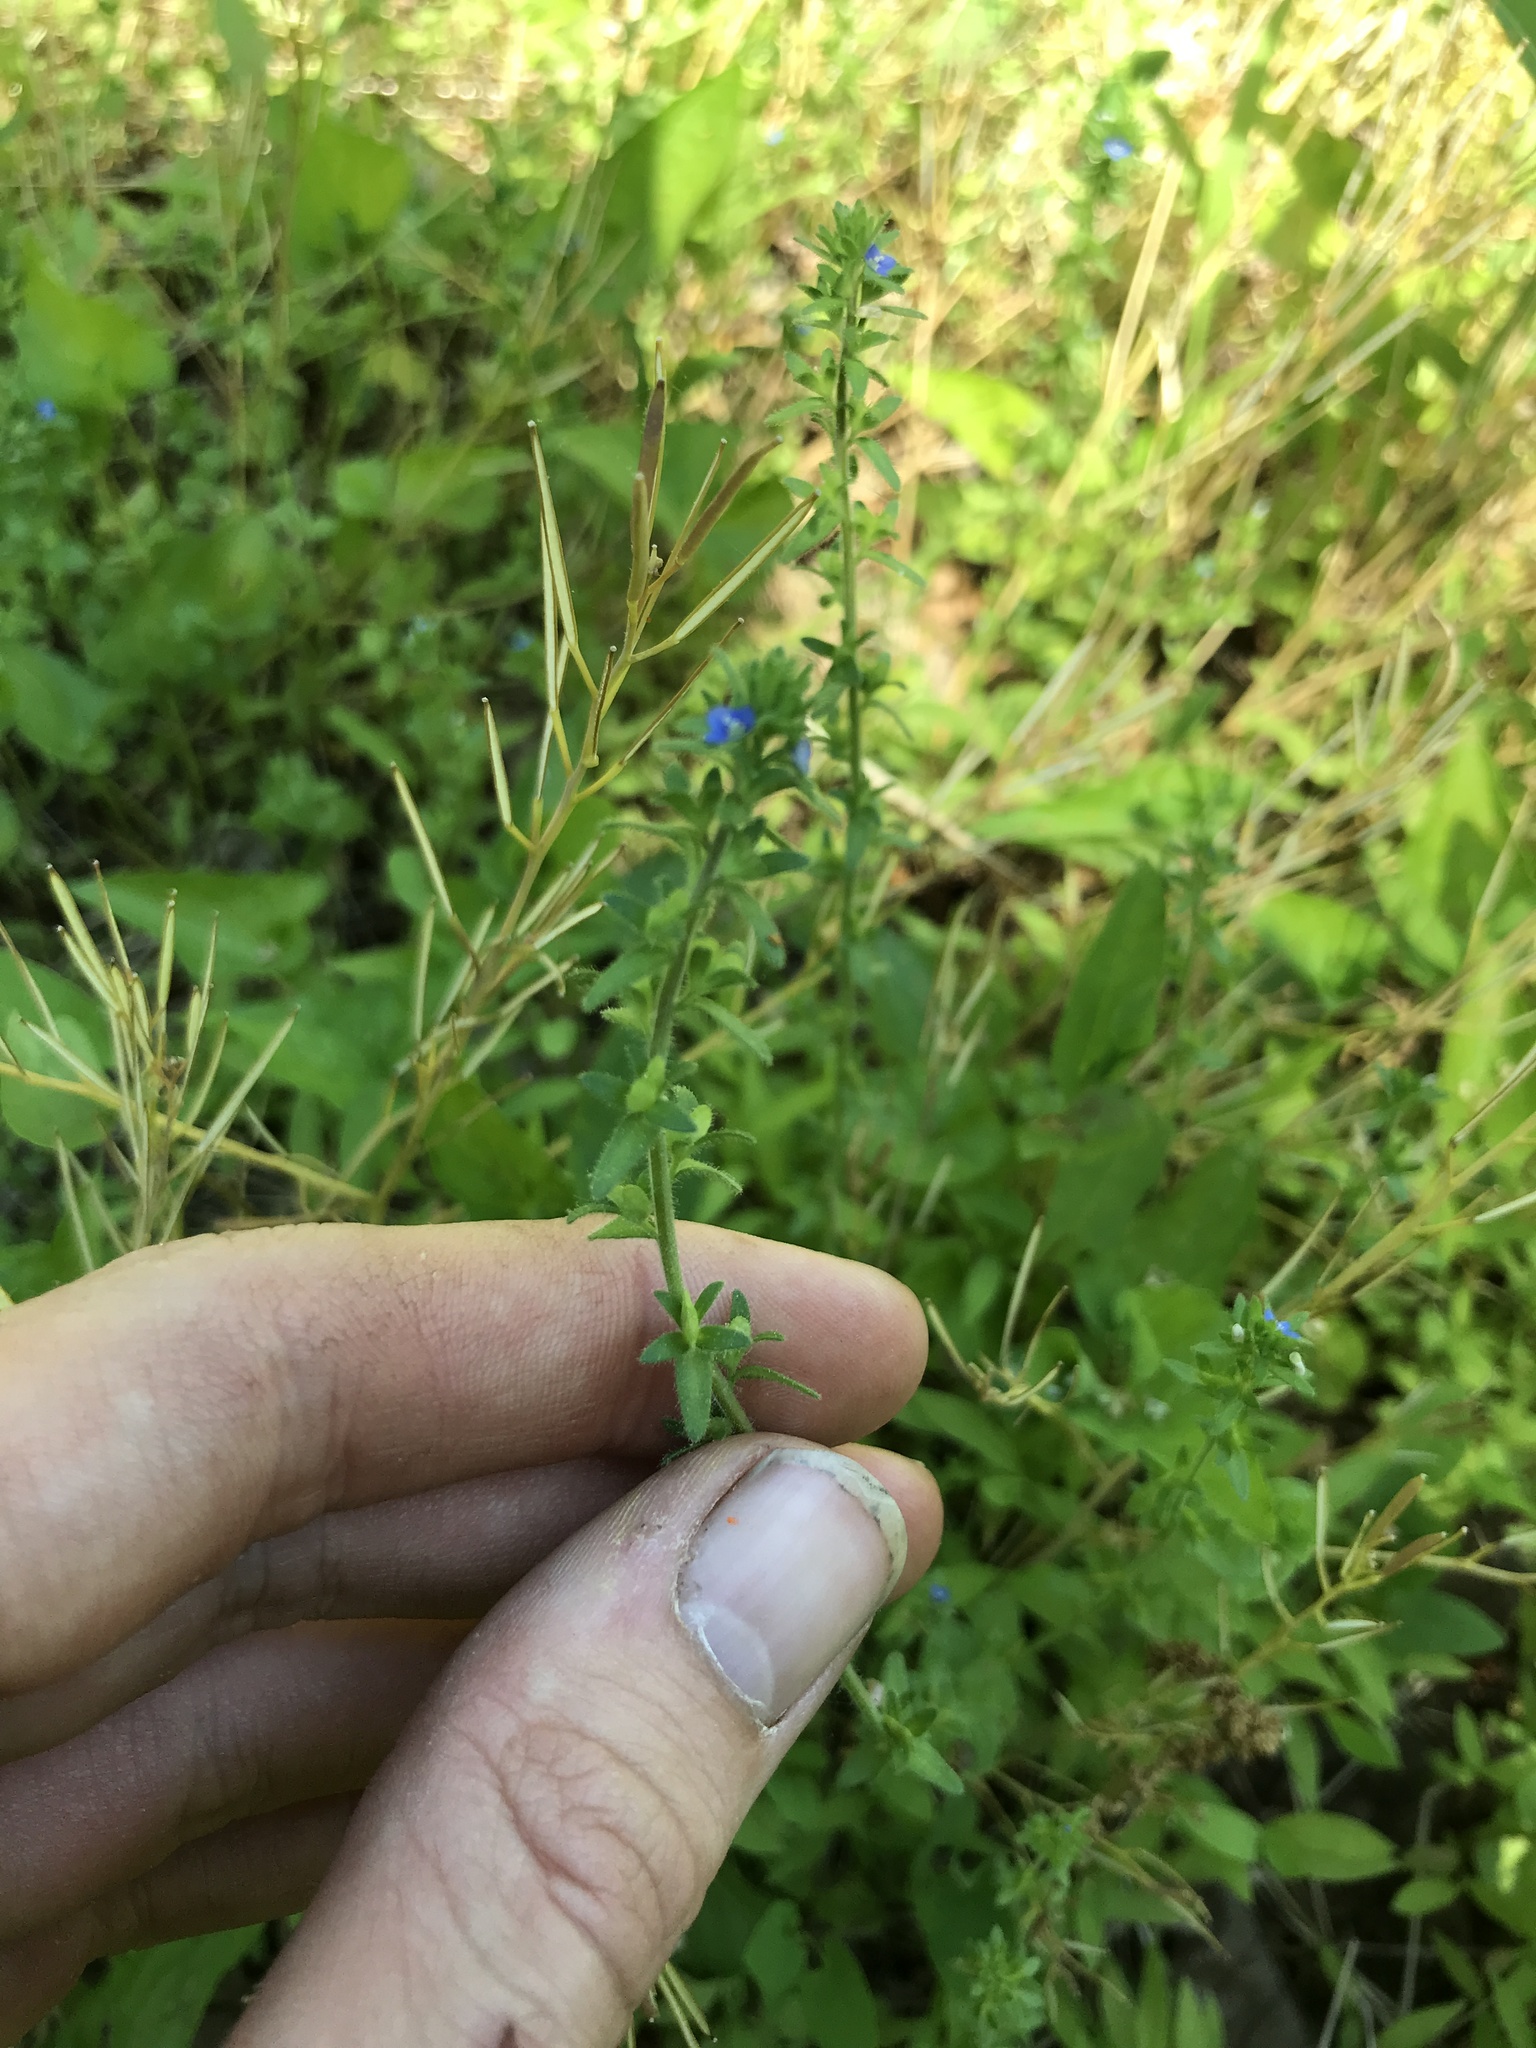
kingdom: Plantae
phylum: Tracheophyta
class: Magnoliopsida
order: Lamiales
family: Plantaginaceae
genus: Veronica
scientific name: Veronica arvensis
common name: Corn speedwell
